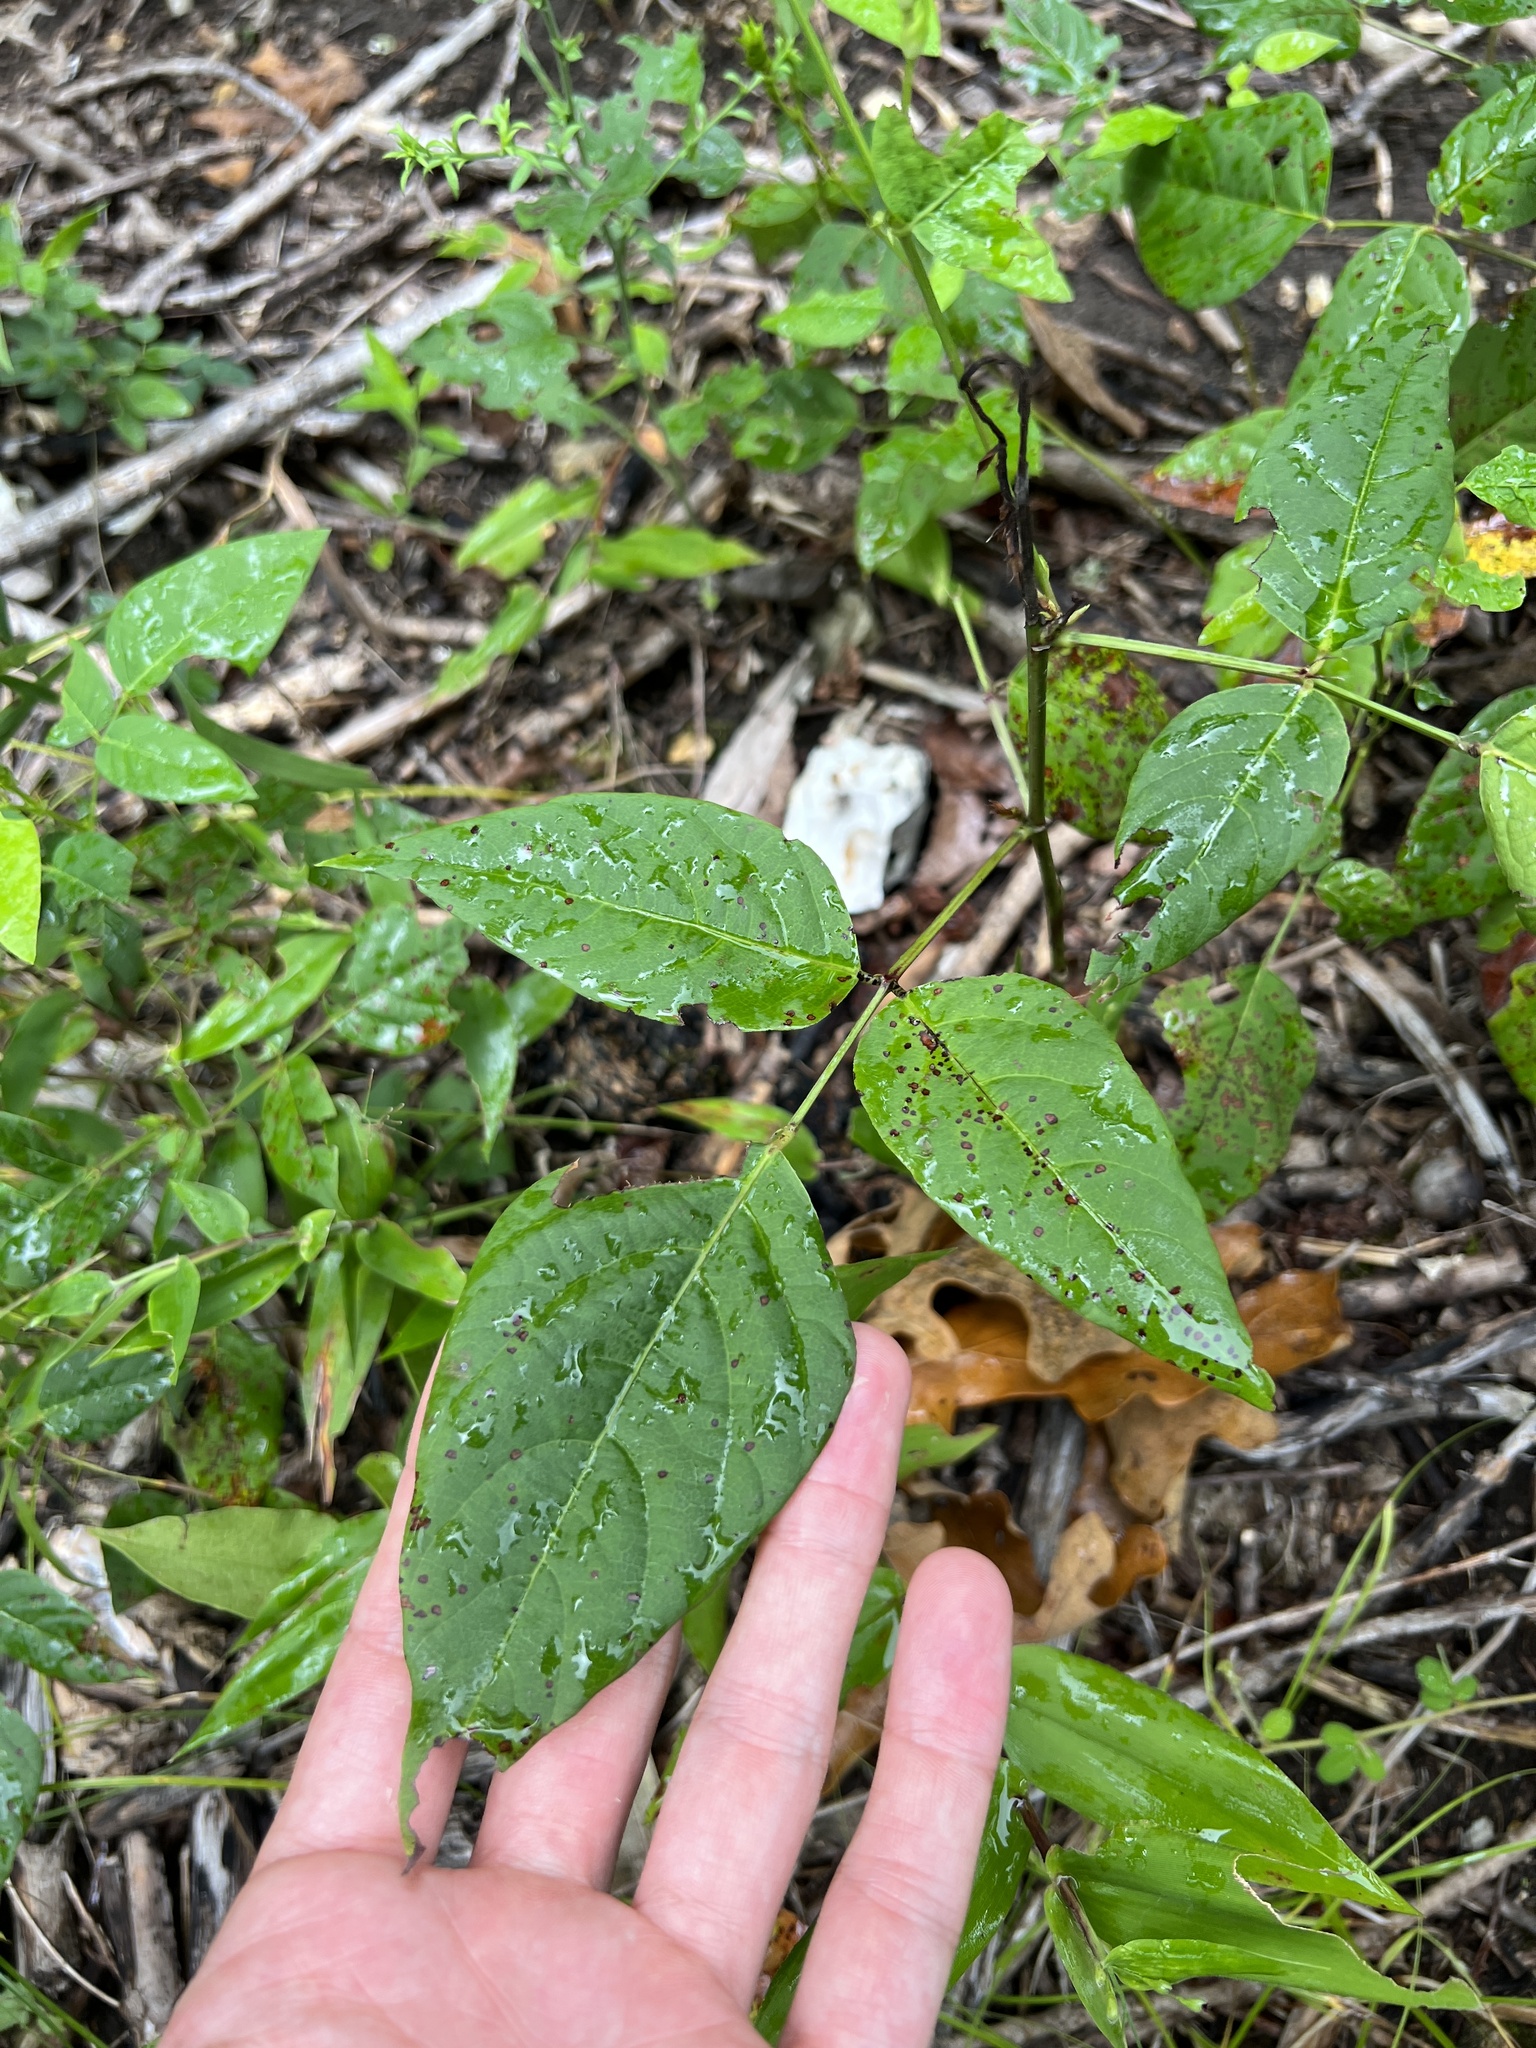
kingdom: Plantae
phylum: Tracheophyta
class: Magnoliopsida
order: Fabales
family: Fabaceae
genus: Desmodium
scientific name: Desmodium cuspidatum
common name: Big tick trefoil
